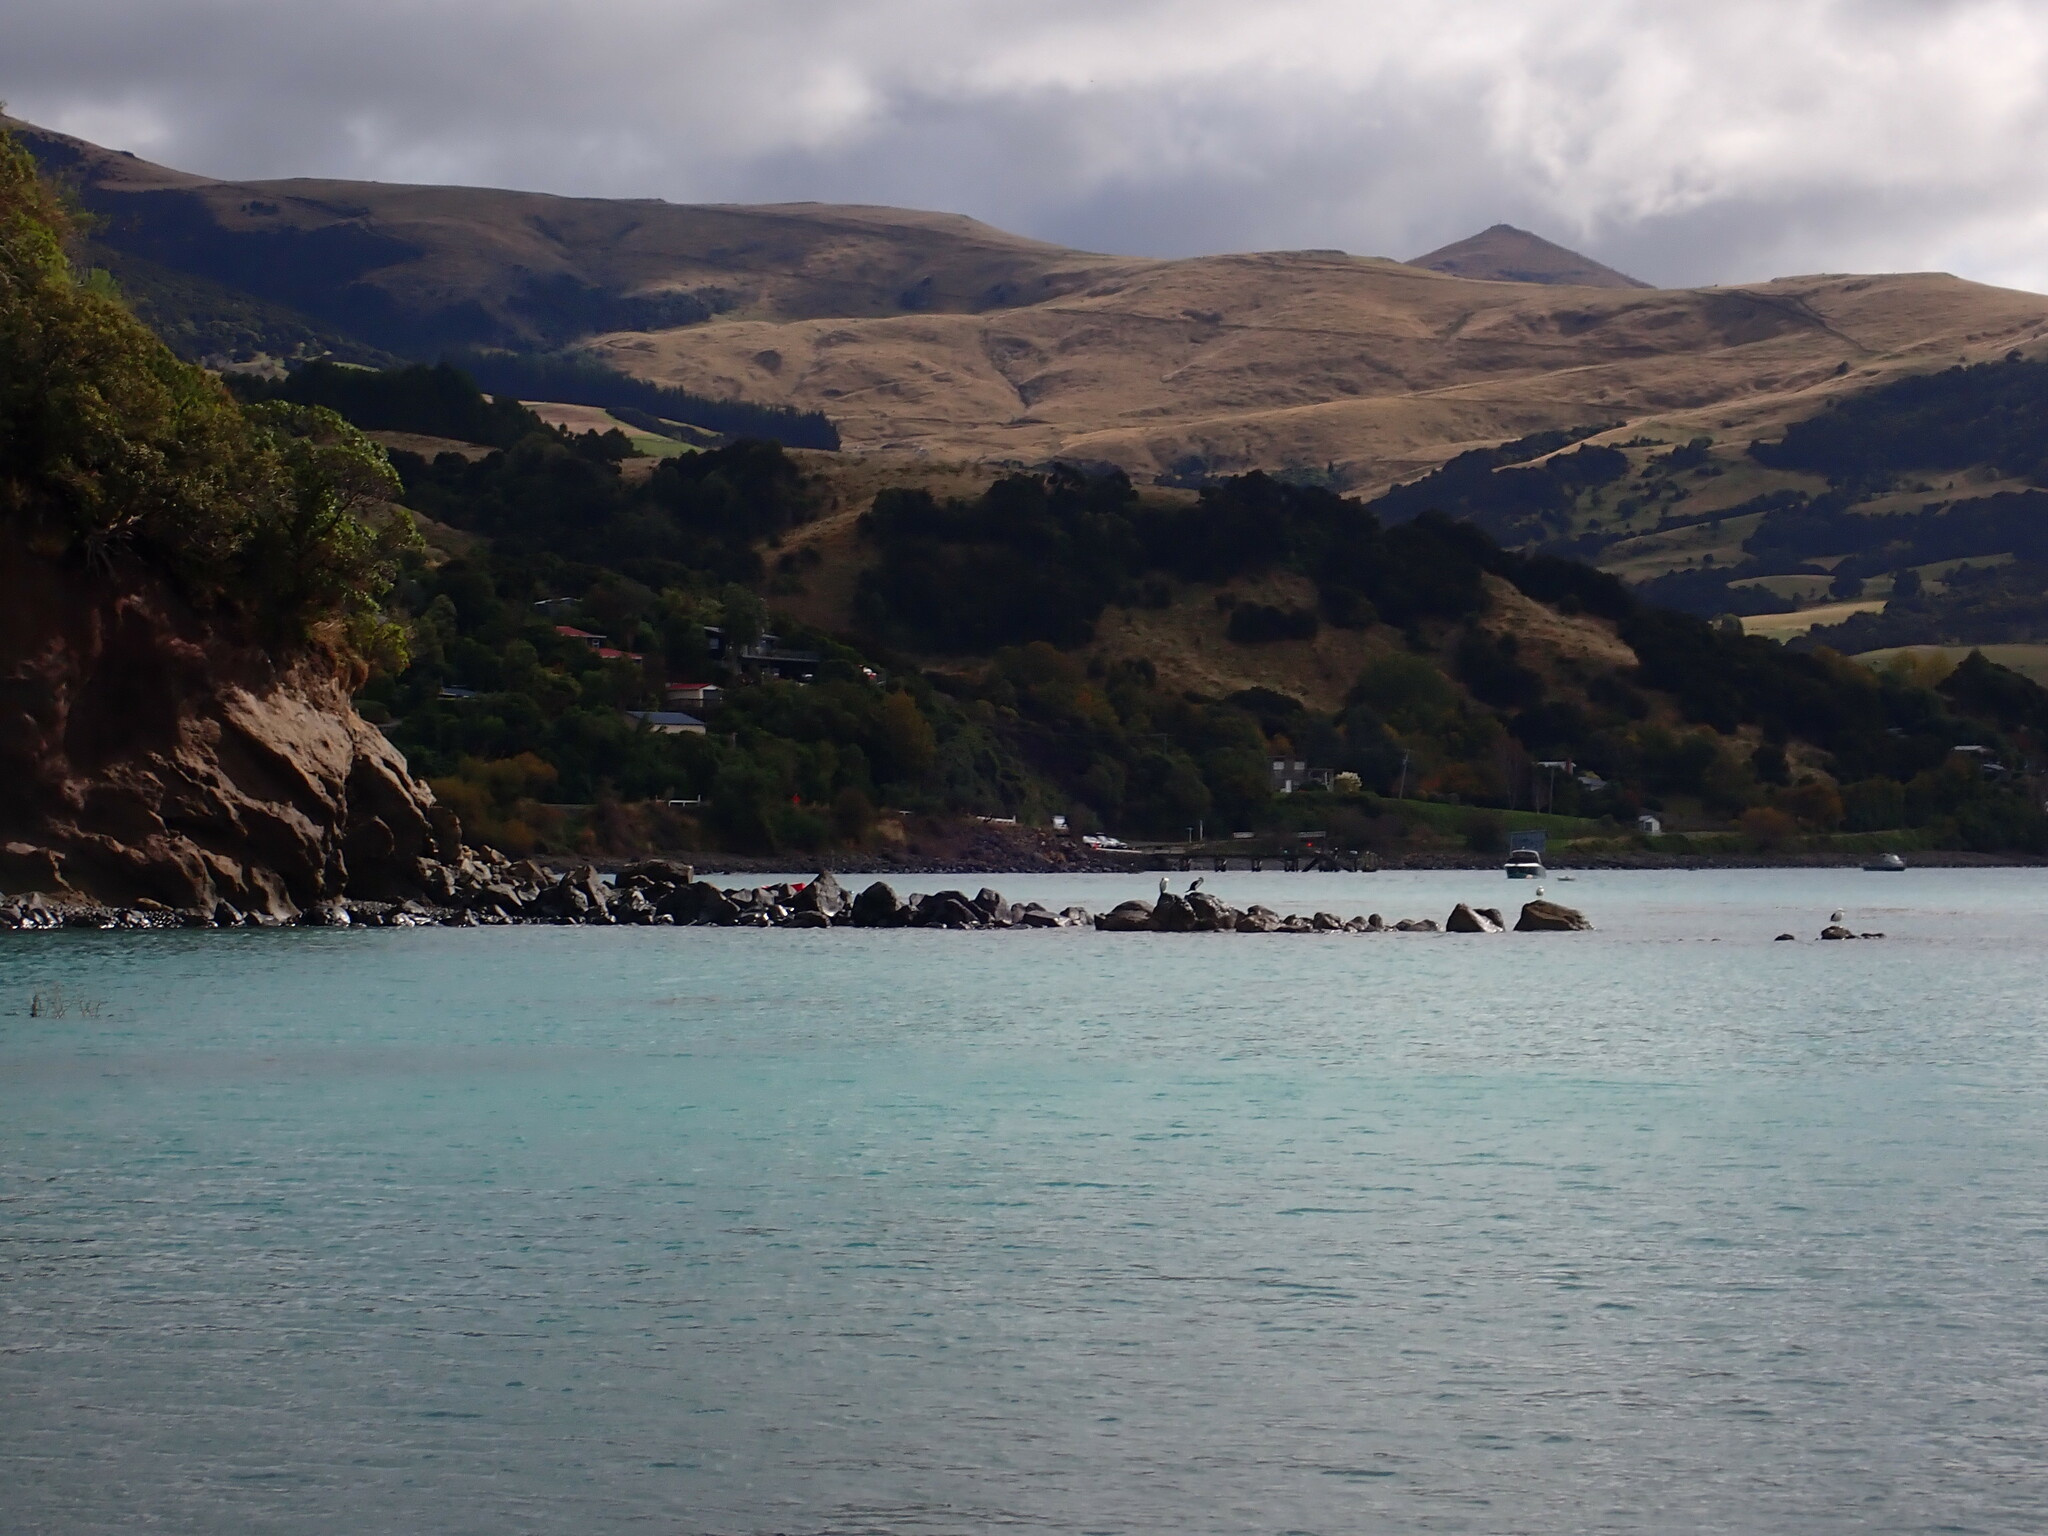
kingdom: Animalia
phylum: Chordata
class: Aves
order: Suliformes
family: Phalacrocoracidae
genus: Phalacrocorax
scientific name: Phalacrocorax varius
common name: Pied cormorant
